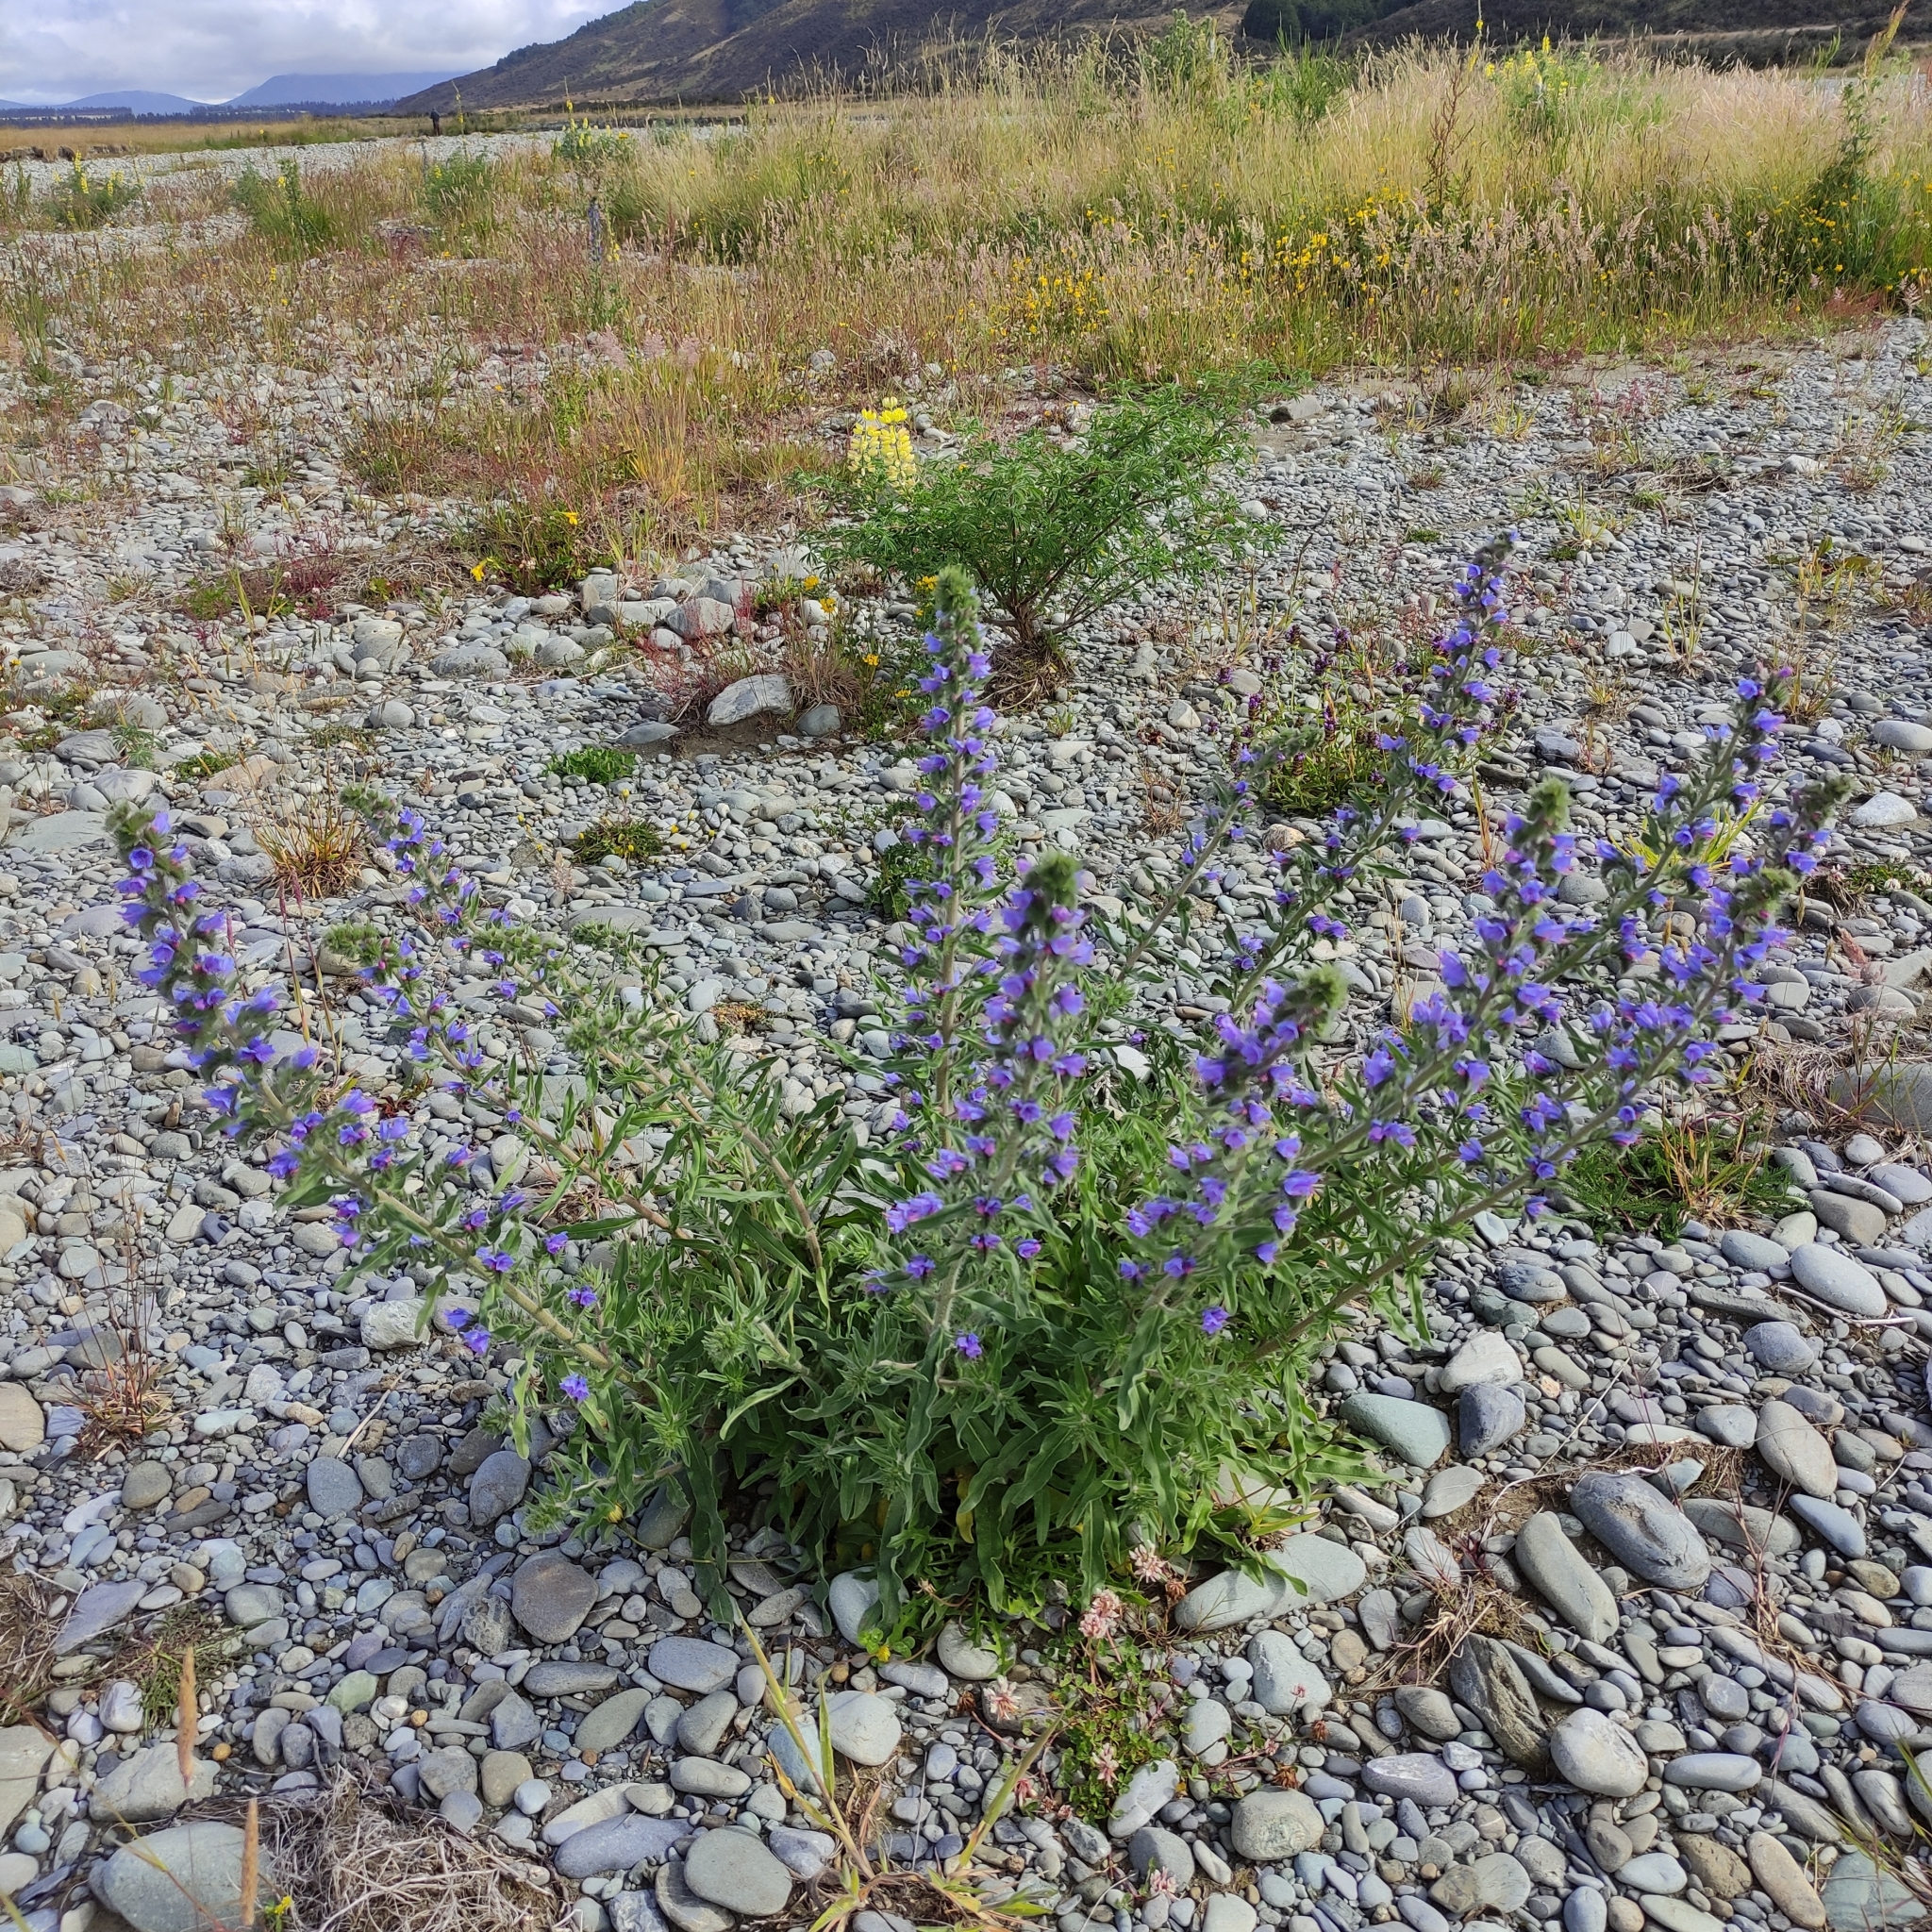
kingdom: Plantae
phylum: Tracheophyta
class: Magnoliopsida
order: Boraginales
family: Boraginaceae
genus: Echium
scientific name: Echium vulgare
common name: Common viper's bugloss
